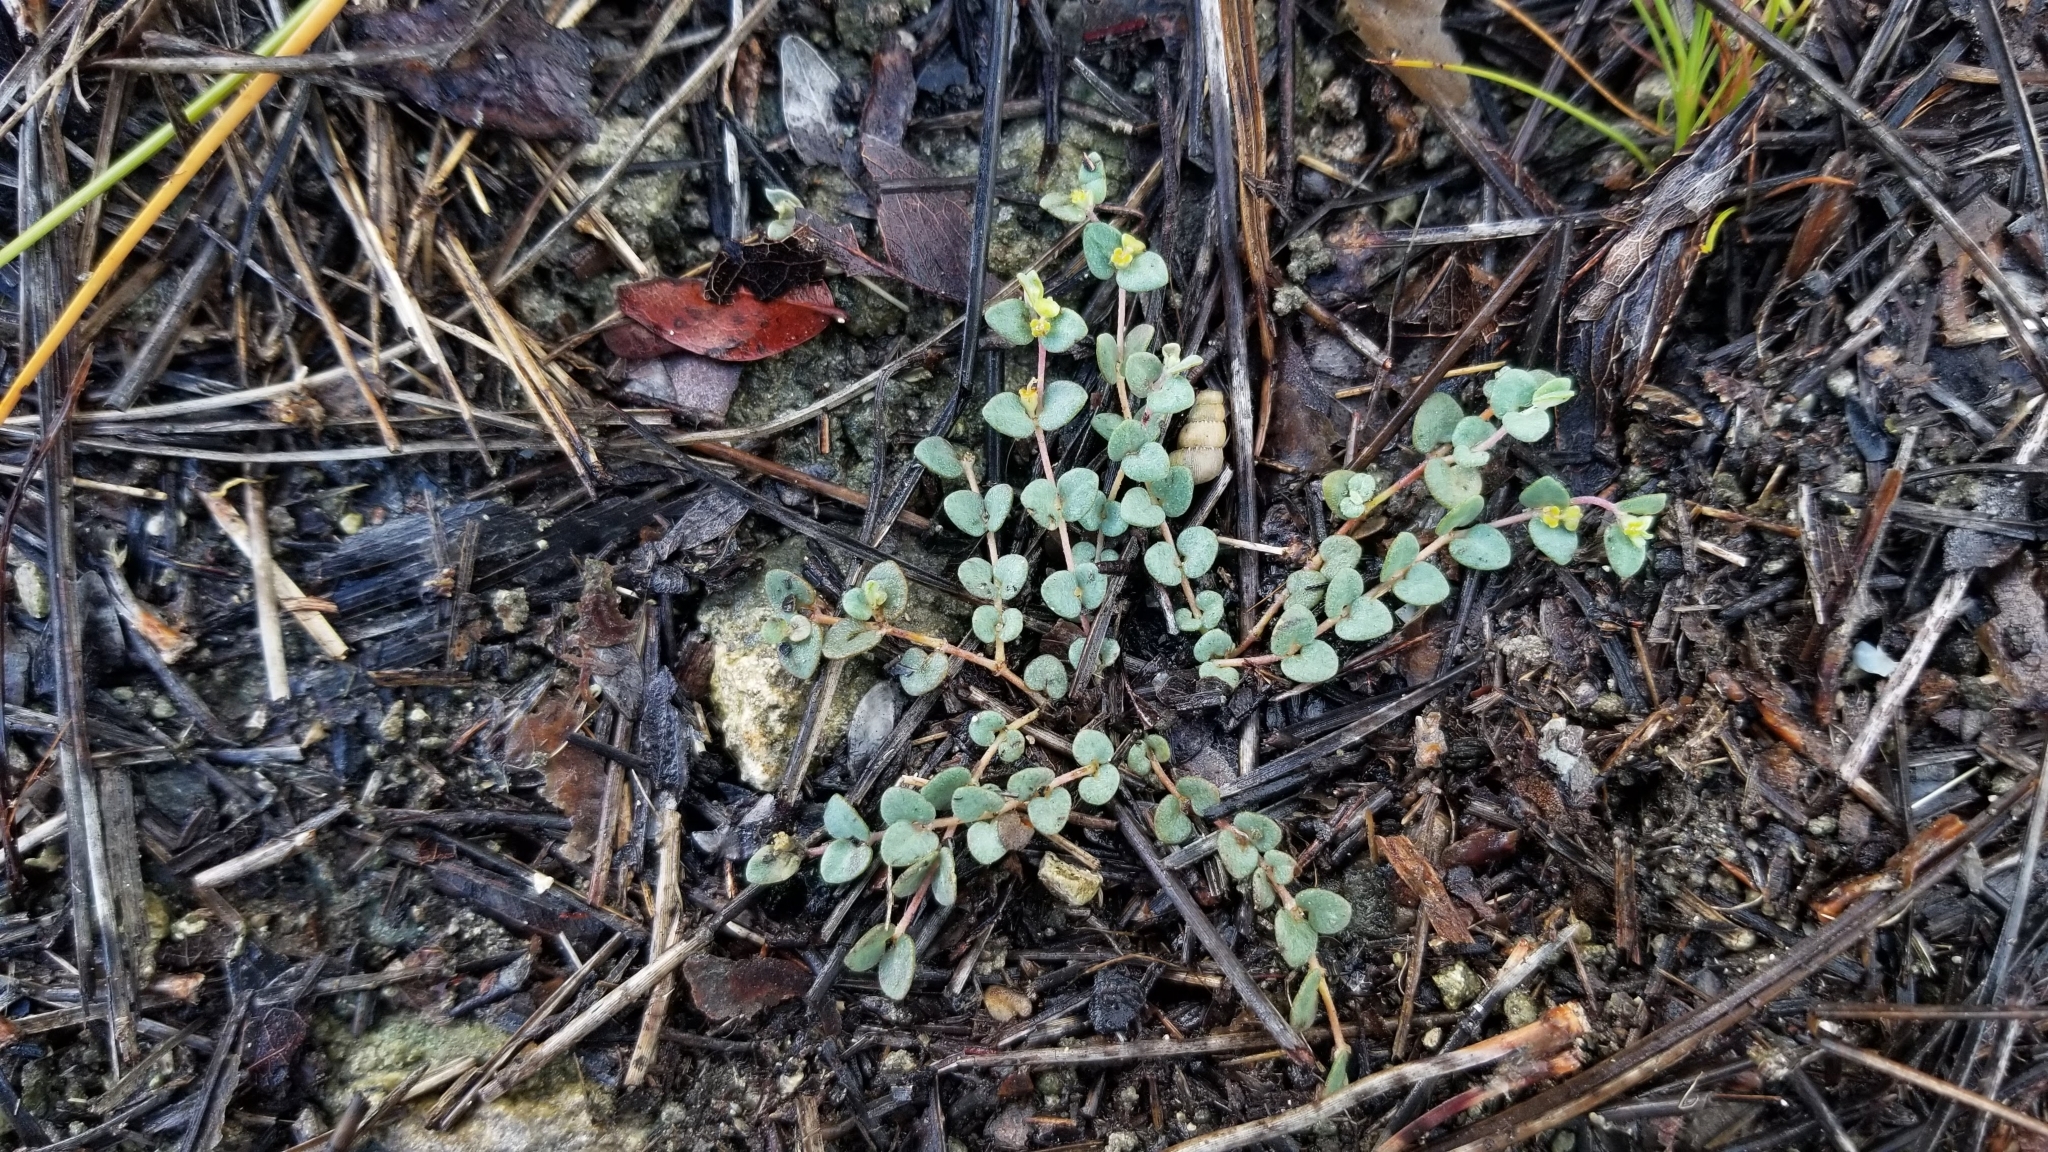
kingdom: Plantae
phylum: Tracheophyta
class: Magnoliopsida
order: Malpighiales
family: Euphorbiaceae
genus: Euphorbia
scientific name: Euphorbia deltoidea
